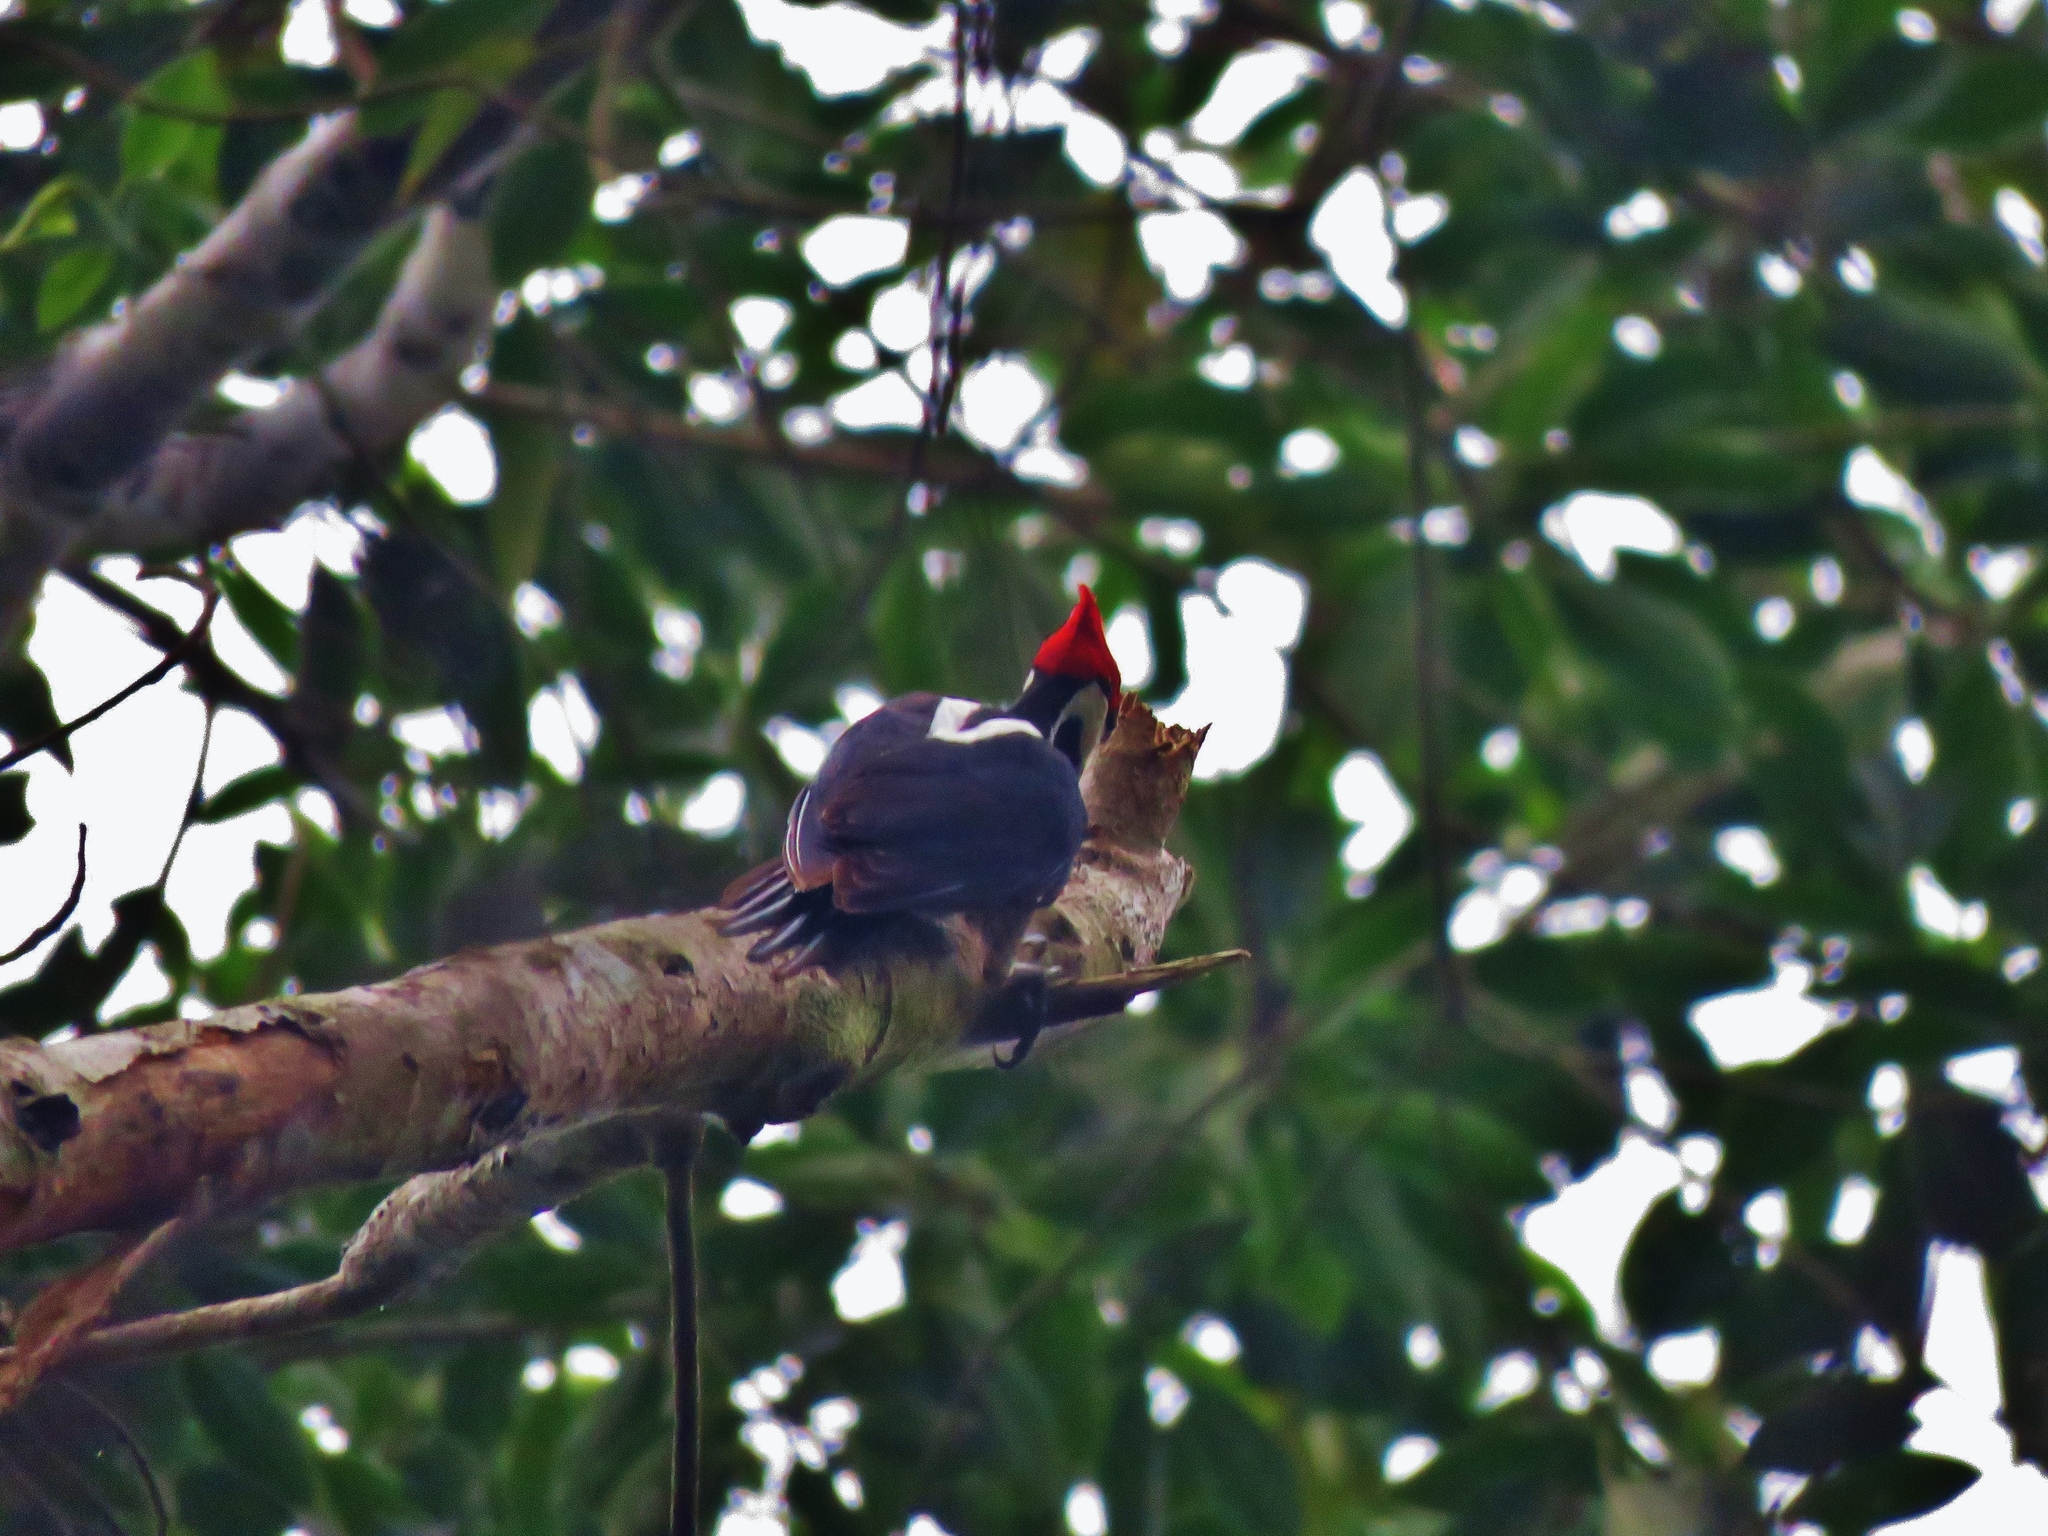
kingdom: Animalia
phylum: Chordata
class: Aves
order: Piciformes
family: Picidae
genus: Campephilus
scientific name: Campephilus melanoleucos
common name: Crimson-crested woodpecker
